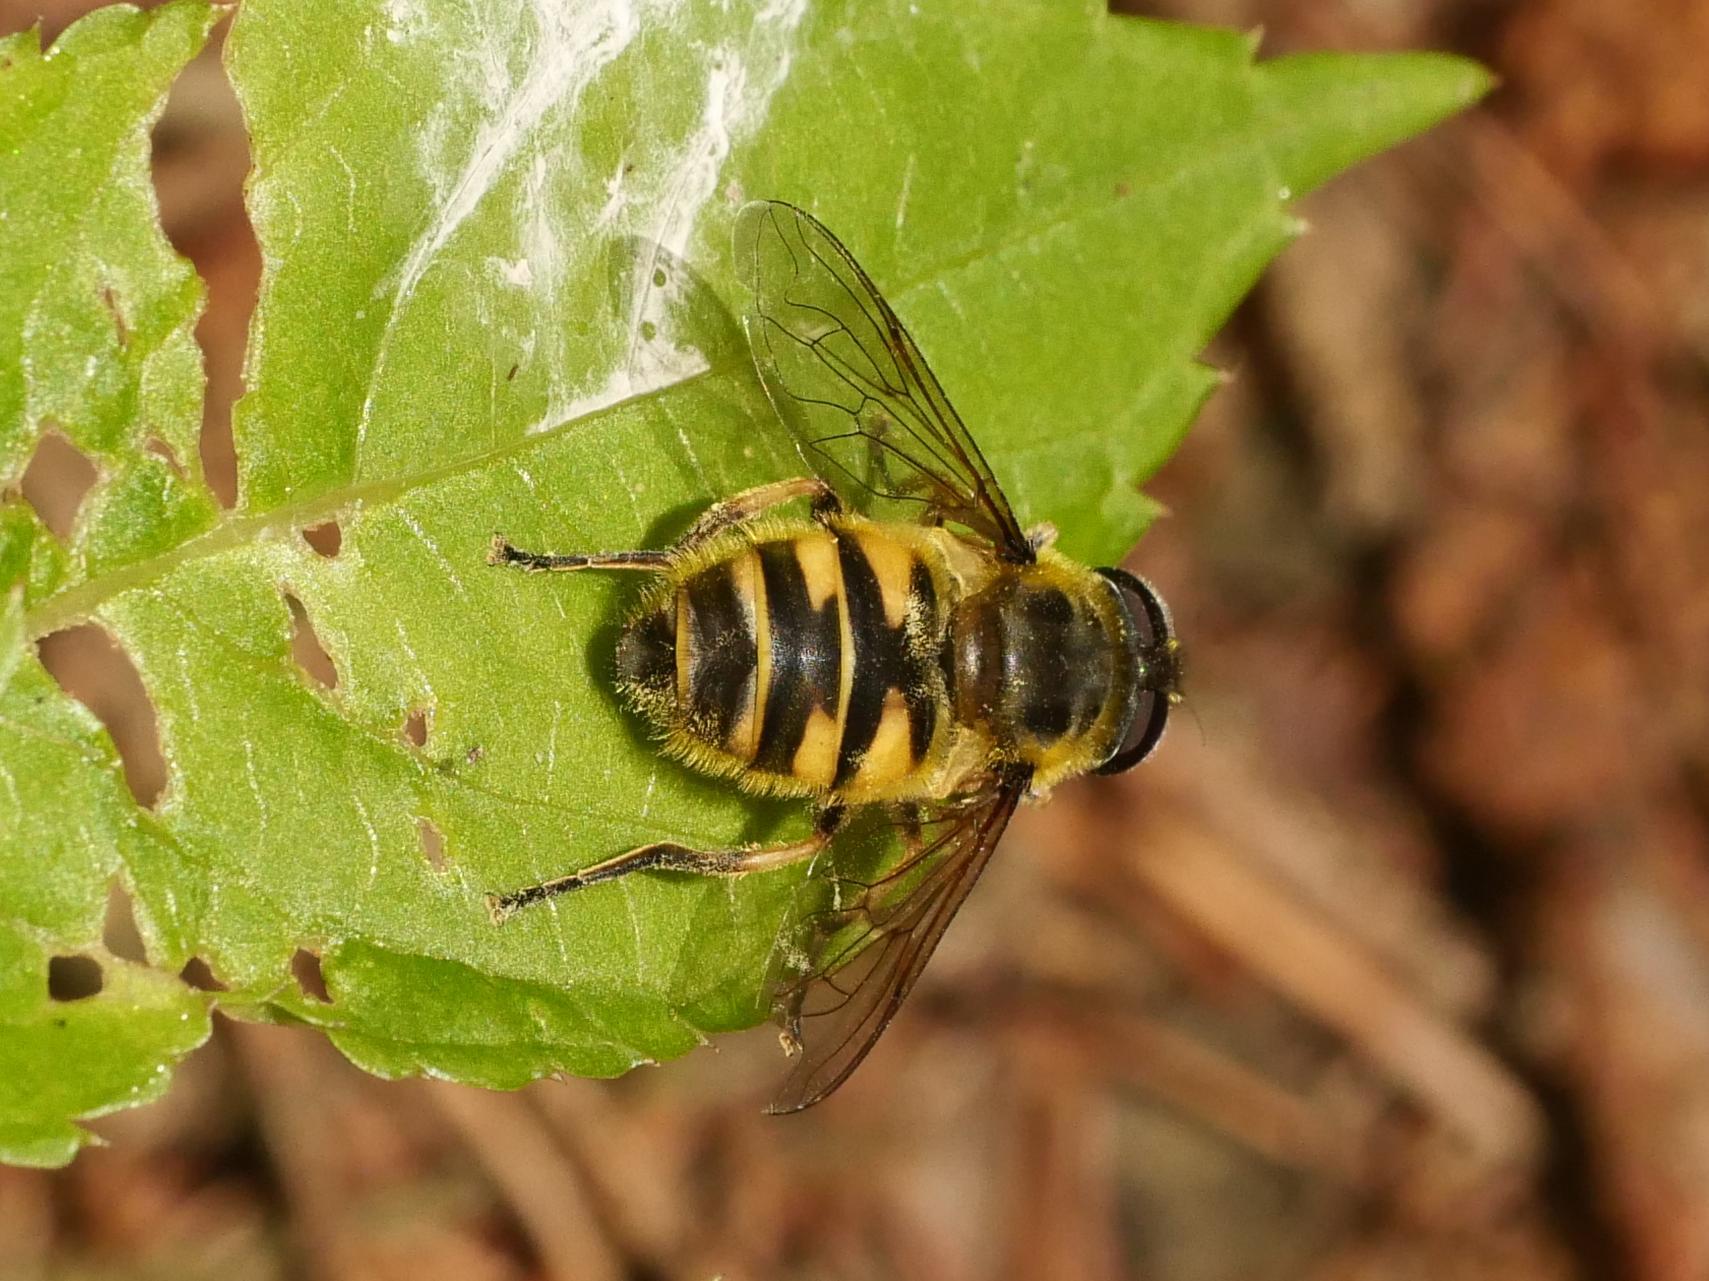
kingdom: Animalia
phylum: Arthropoda
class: Insecta
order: Diptera
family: Syrphidae
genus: Myathropa
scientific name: Myathropa florea
